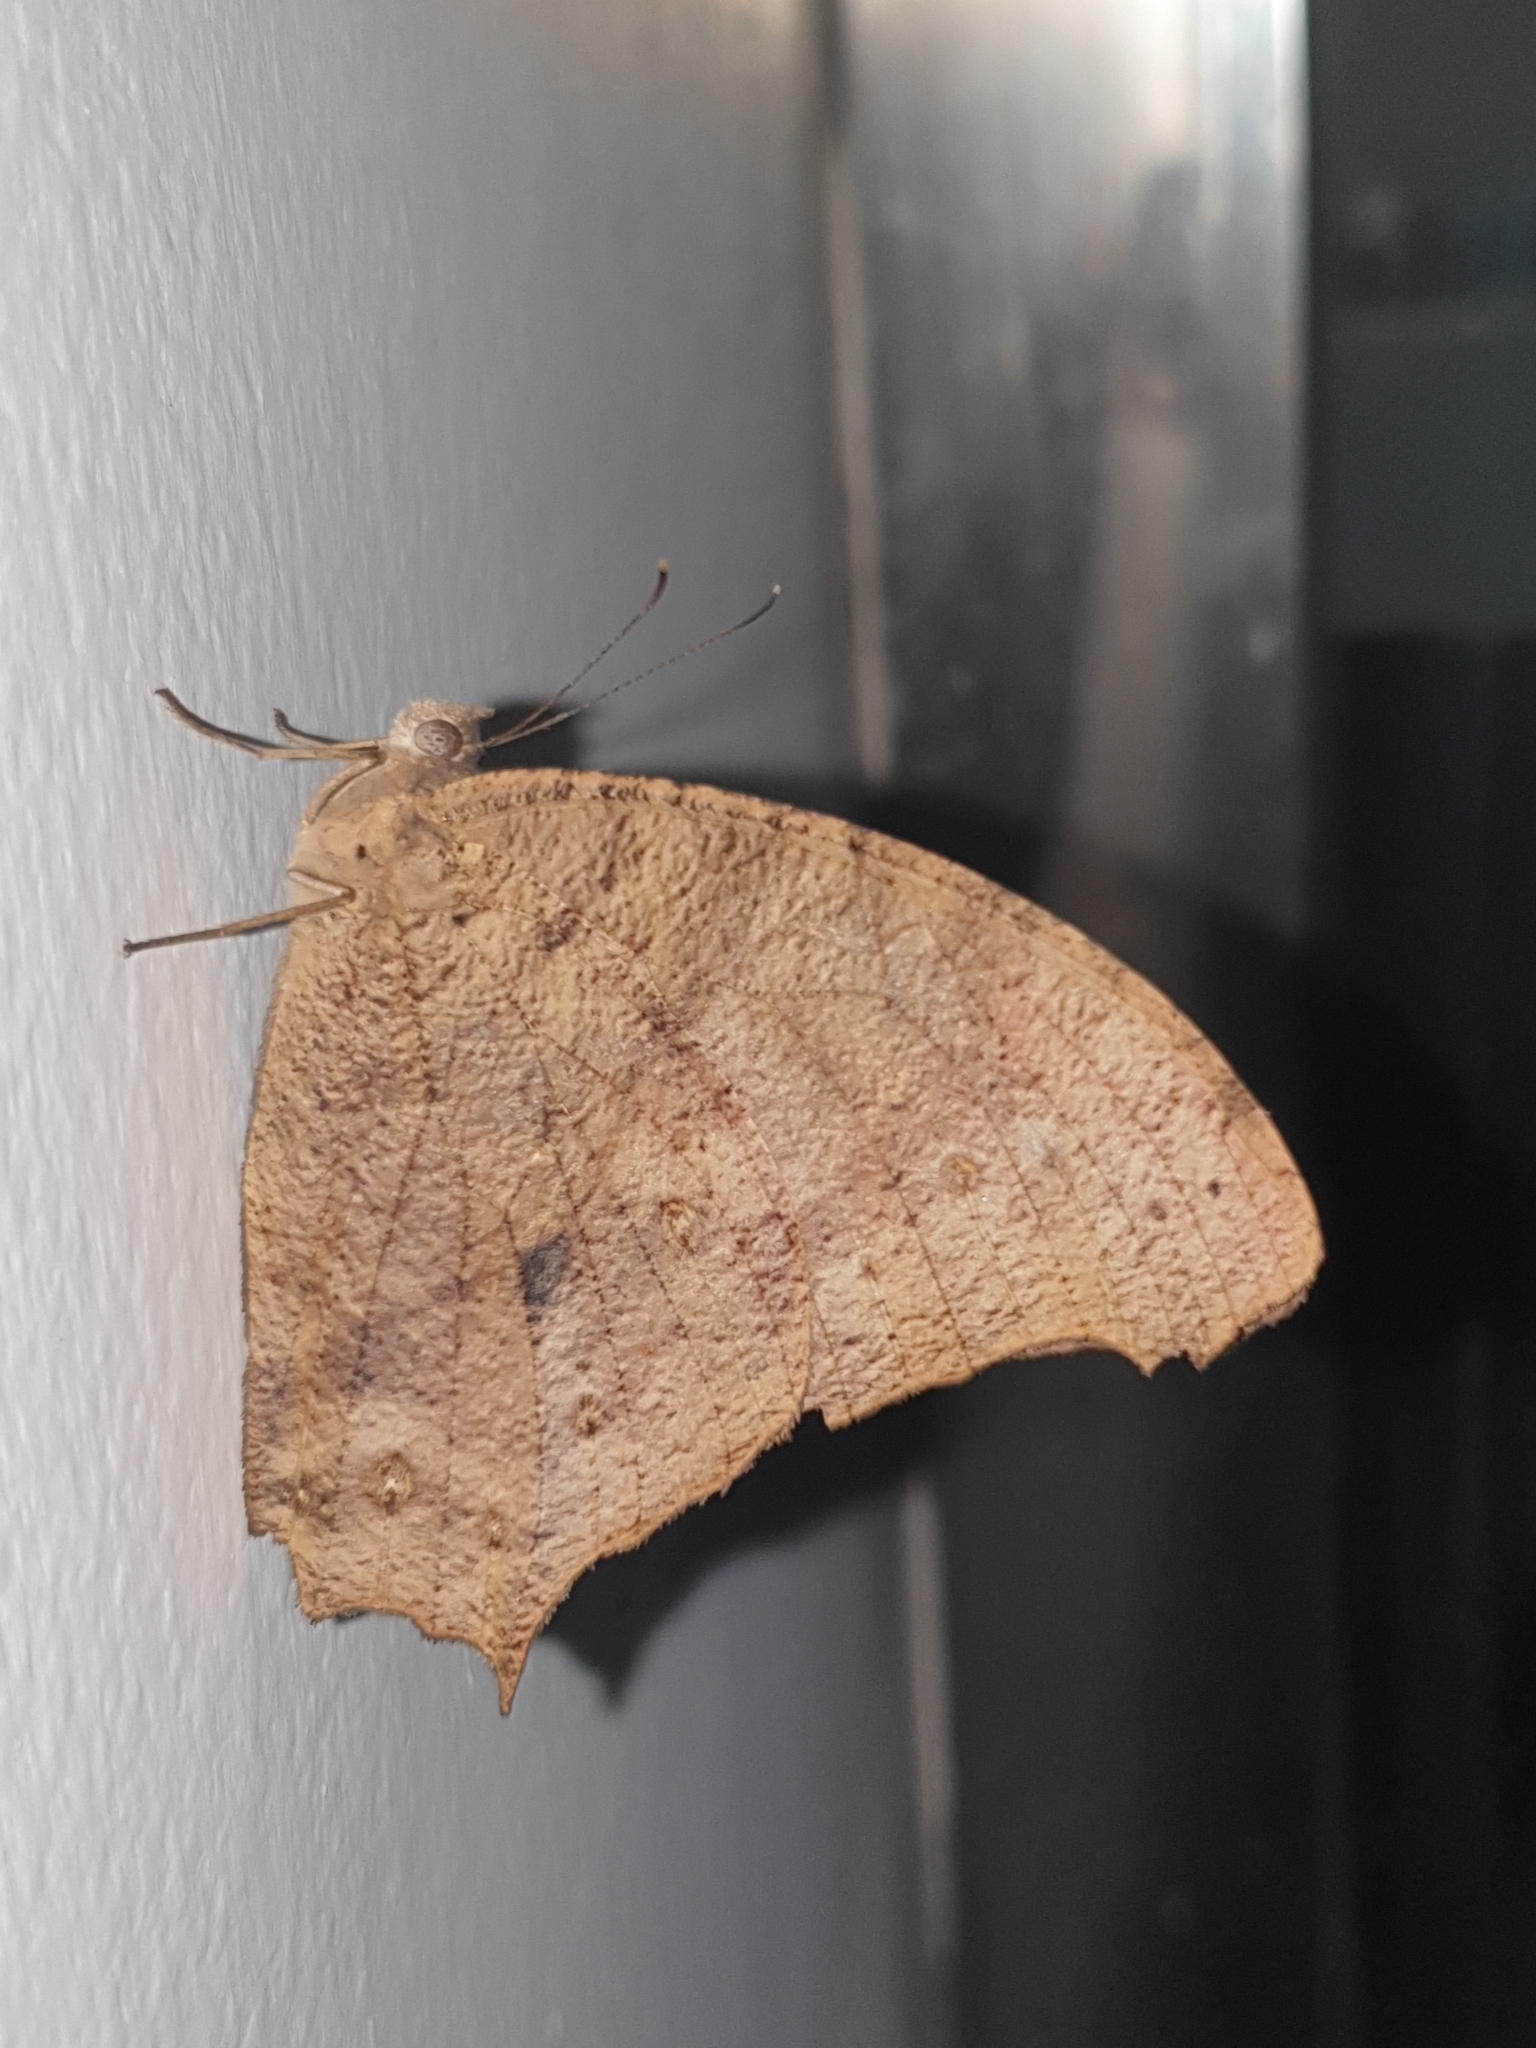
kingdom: Animalia
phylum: Arthropoda
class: Insecta
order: Lepidoptera
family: Nymphalidae
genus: Melanitis
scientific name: Melanitis leda
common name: Twilight brown
